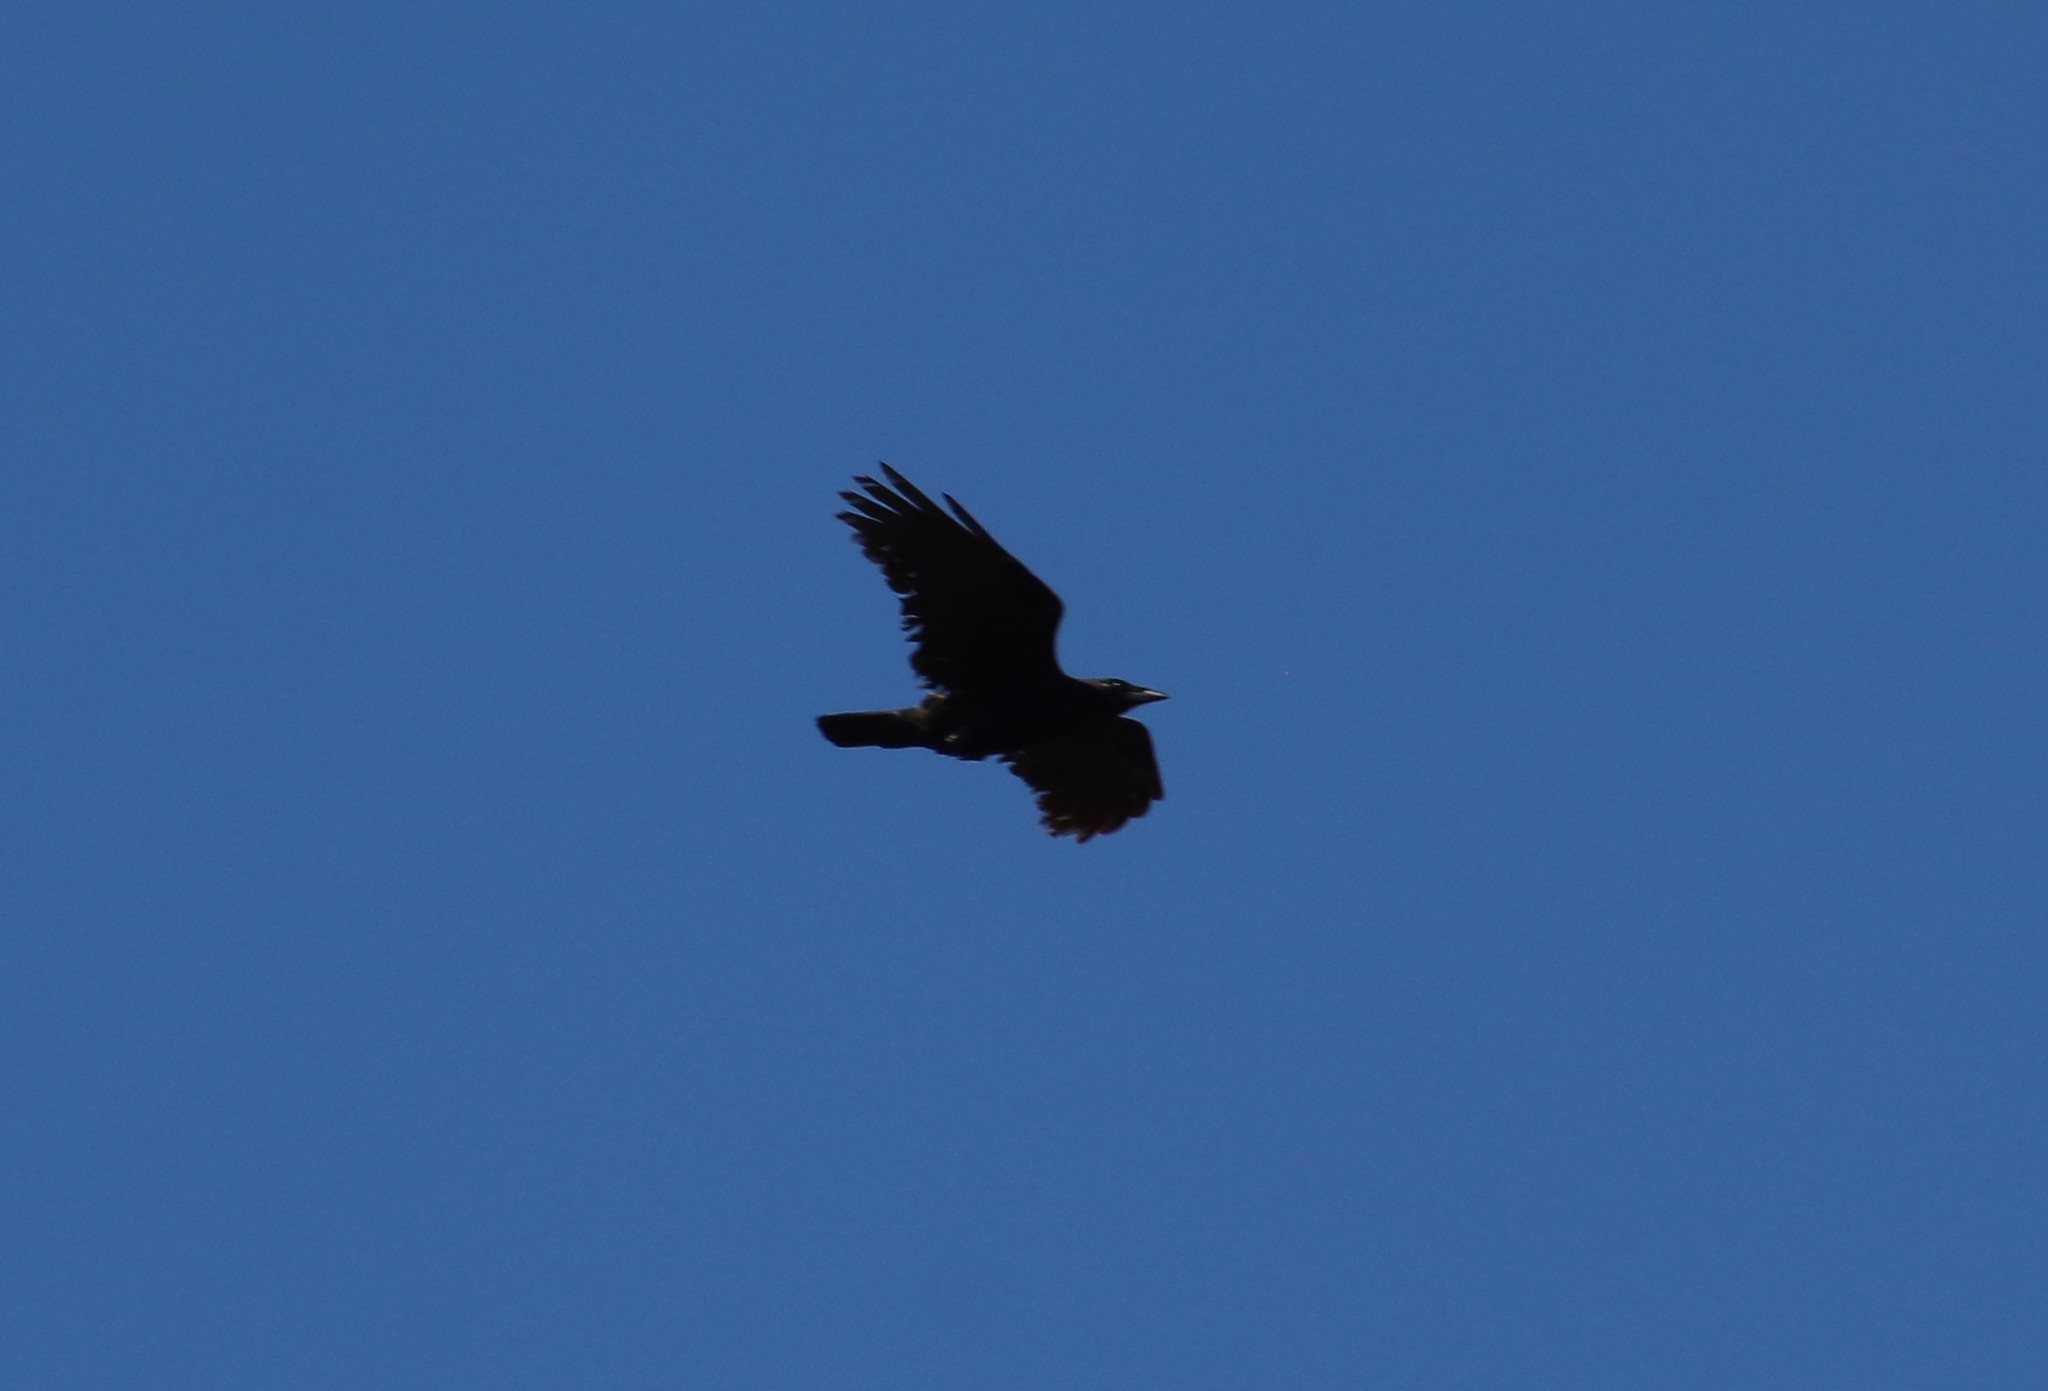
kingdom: Animalia
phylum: Chordata
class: Aves
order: Passeriformes
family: Corvidae
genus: Corvus
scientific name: Corvus brachyrhynchos
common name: American crow
